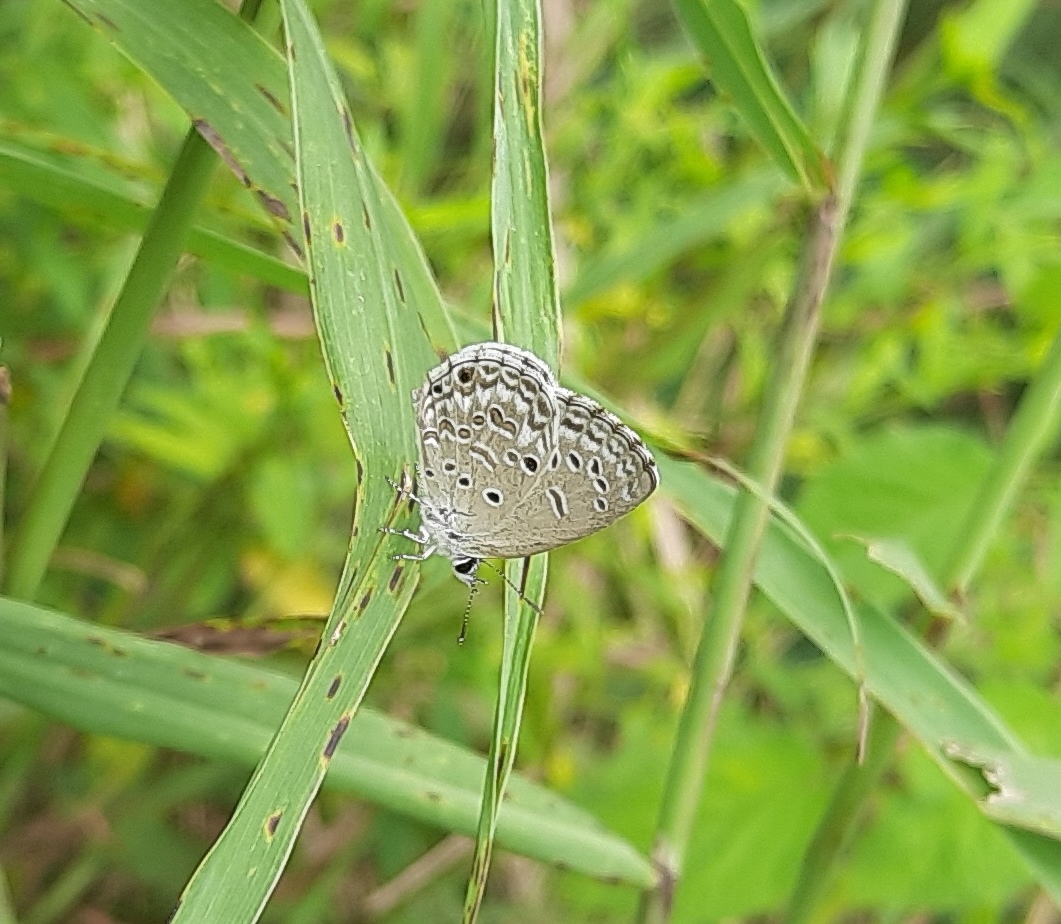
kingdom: Animalia
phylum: Arthropoda
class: Insecta
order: Lepidoptera
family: Lycaenidae
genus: Chilades
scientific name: Chilades laius
